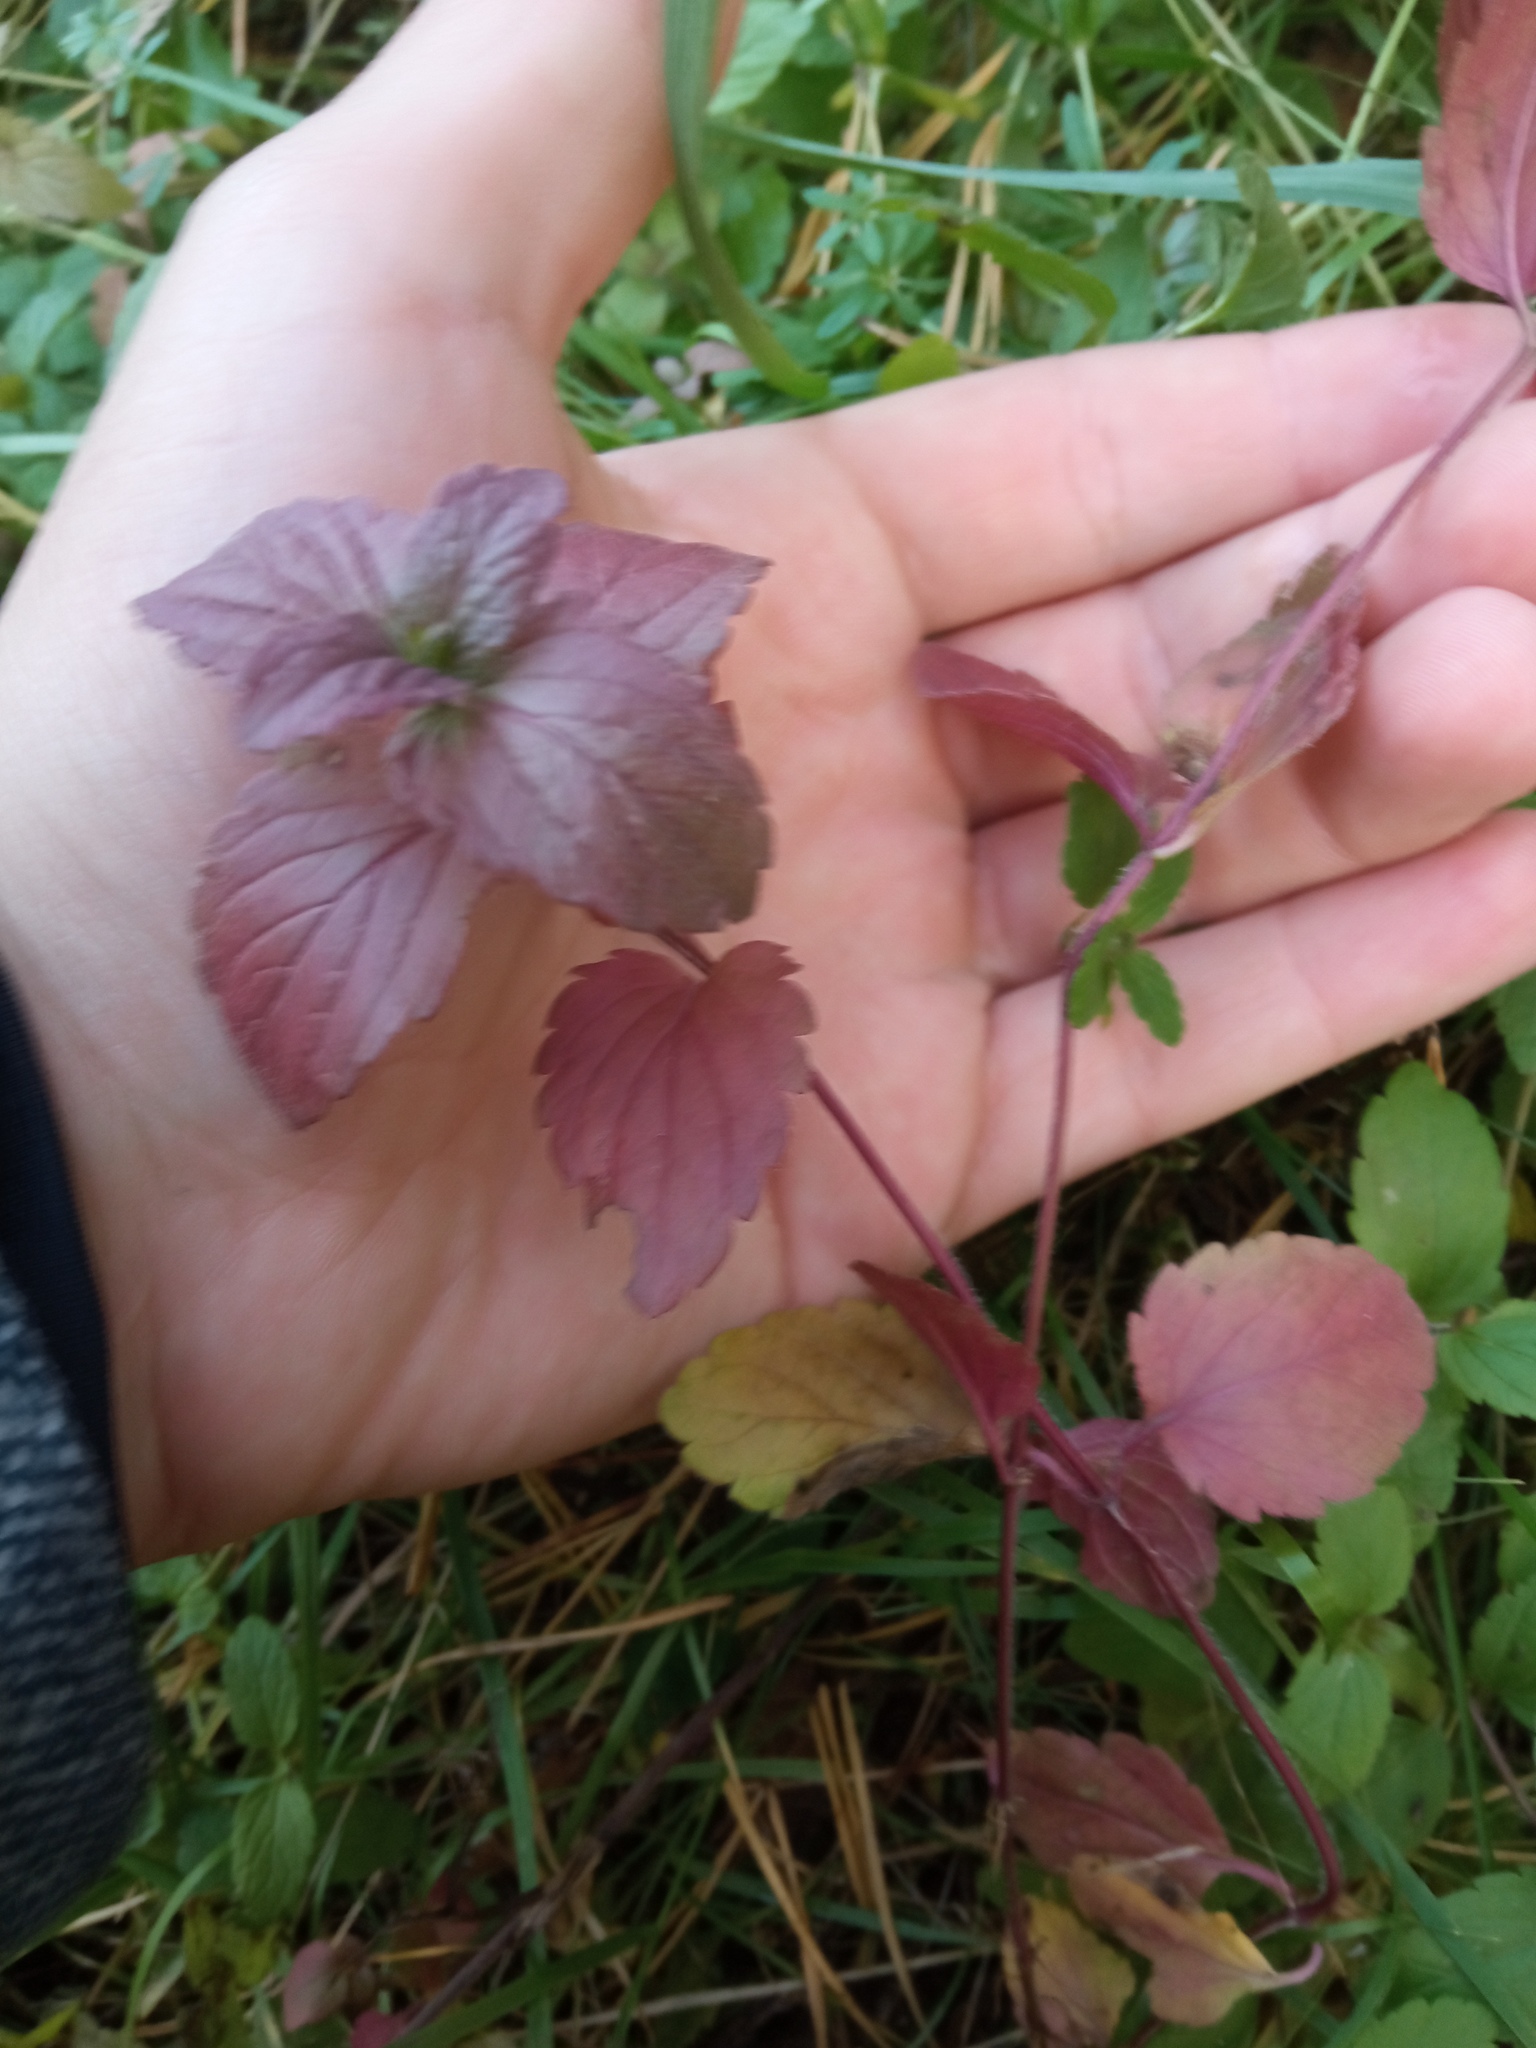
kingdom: Plantae
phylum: Tracheophyta
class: Magnoliopsida
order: Lamiales
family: Plantaginaceae
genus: Veronica
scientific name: Veronica chamaedrys
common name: Germander speedwell
